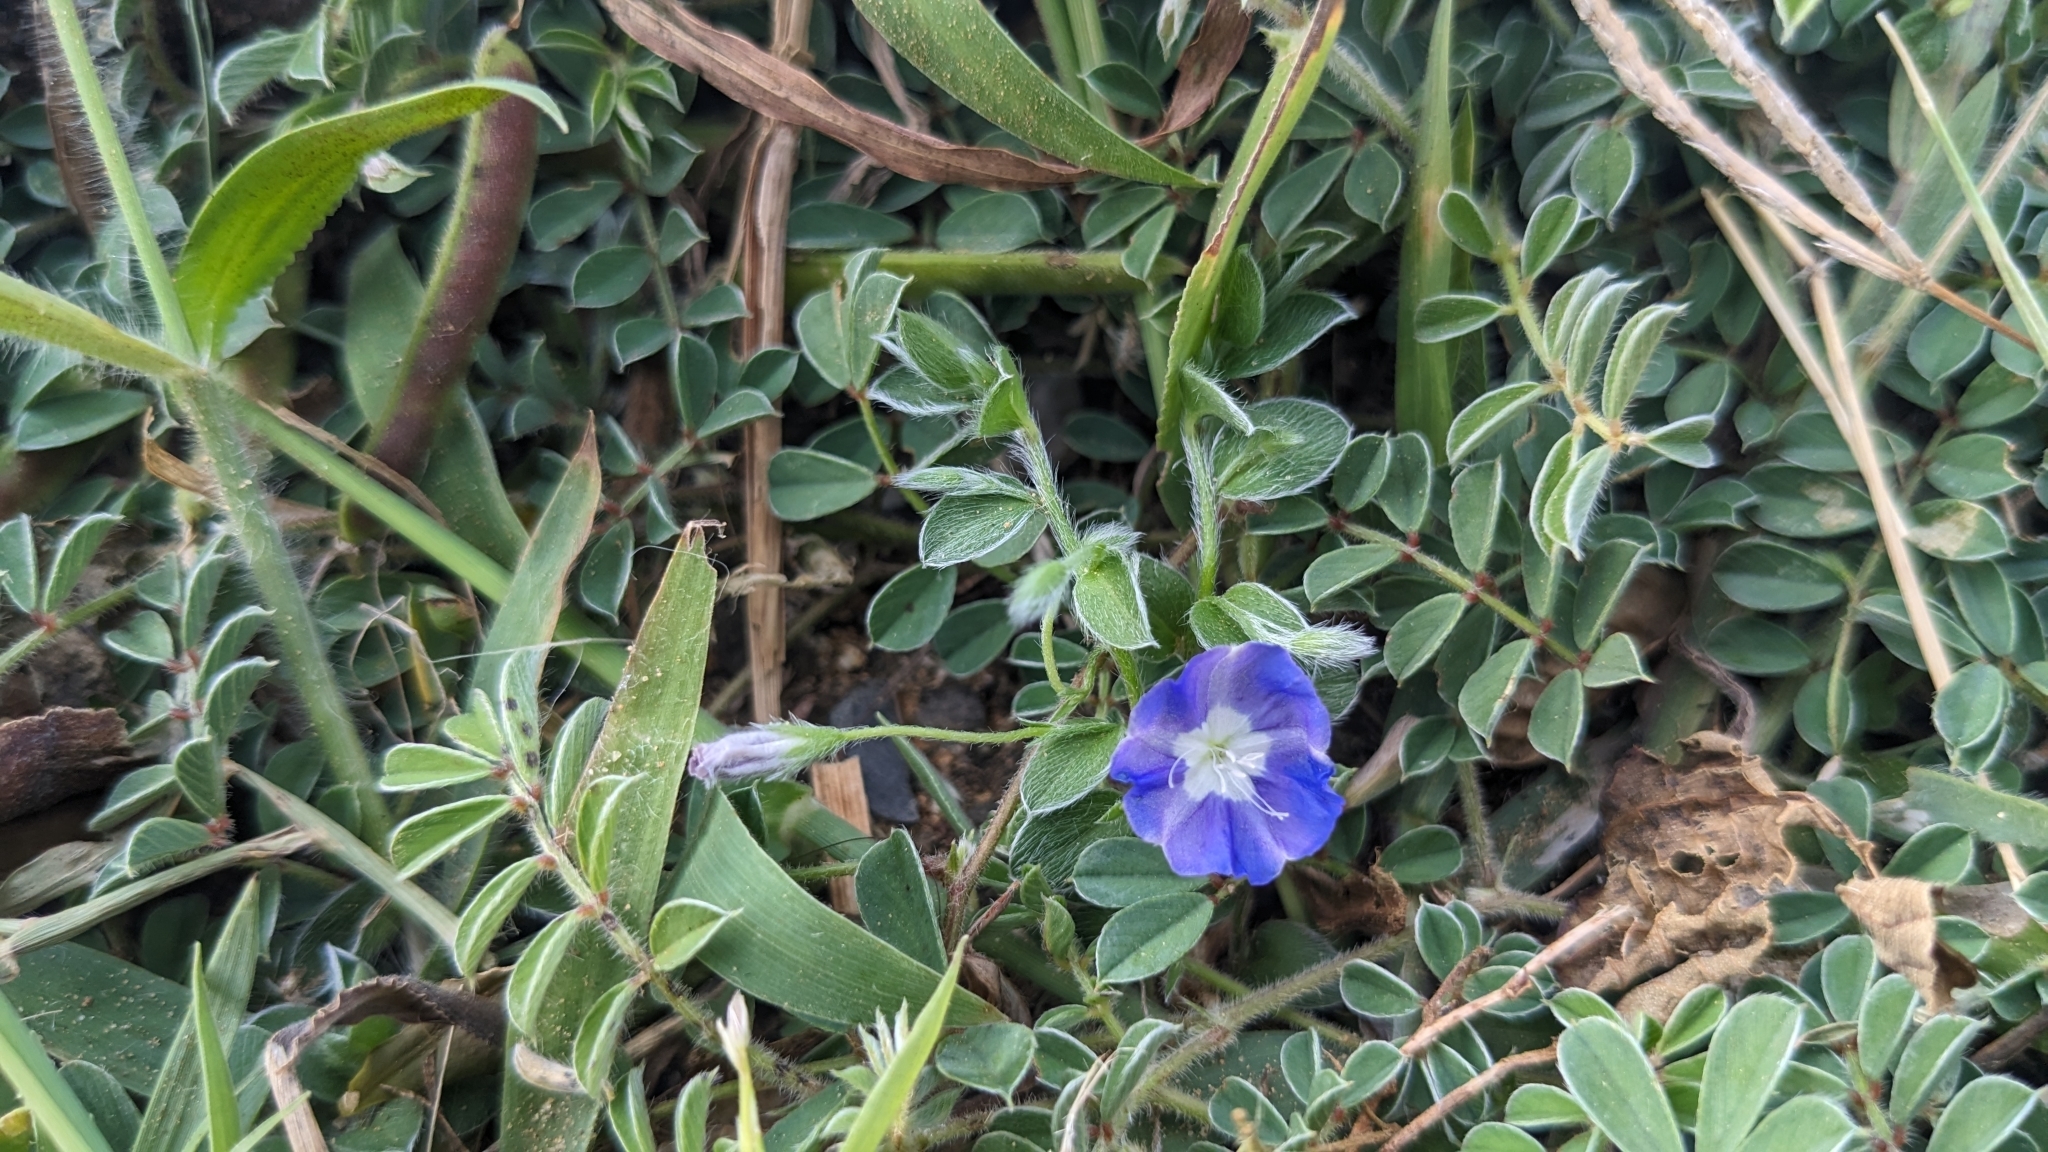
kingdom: Plantae
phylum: Tracheophyta
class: Magnoliopsida
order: Solanales
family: Convolvulaceae
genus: Evolvulus
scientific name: Evolvulus alsinoides
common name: Slender dwarf morning-glory
